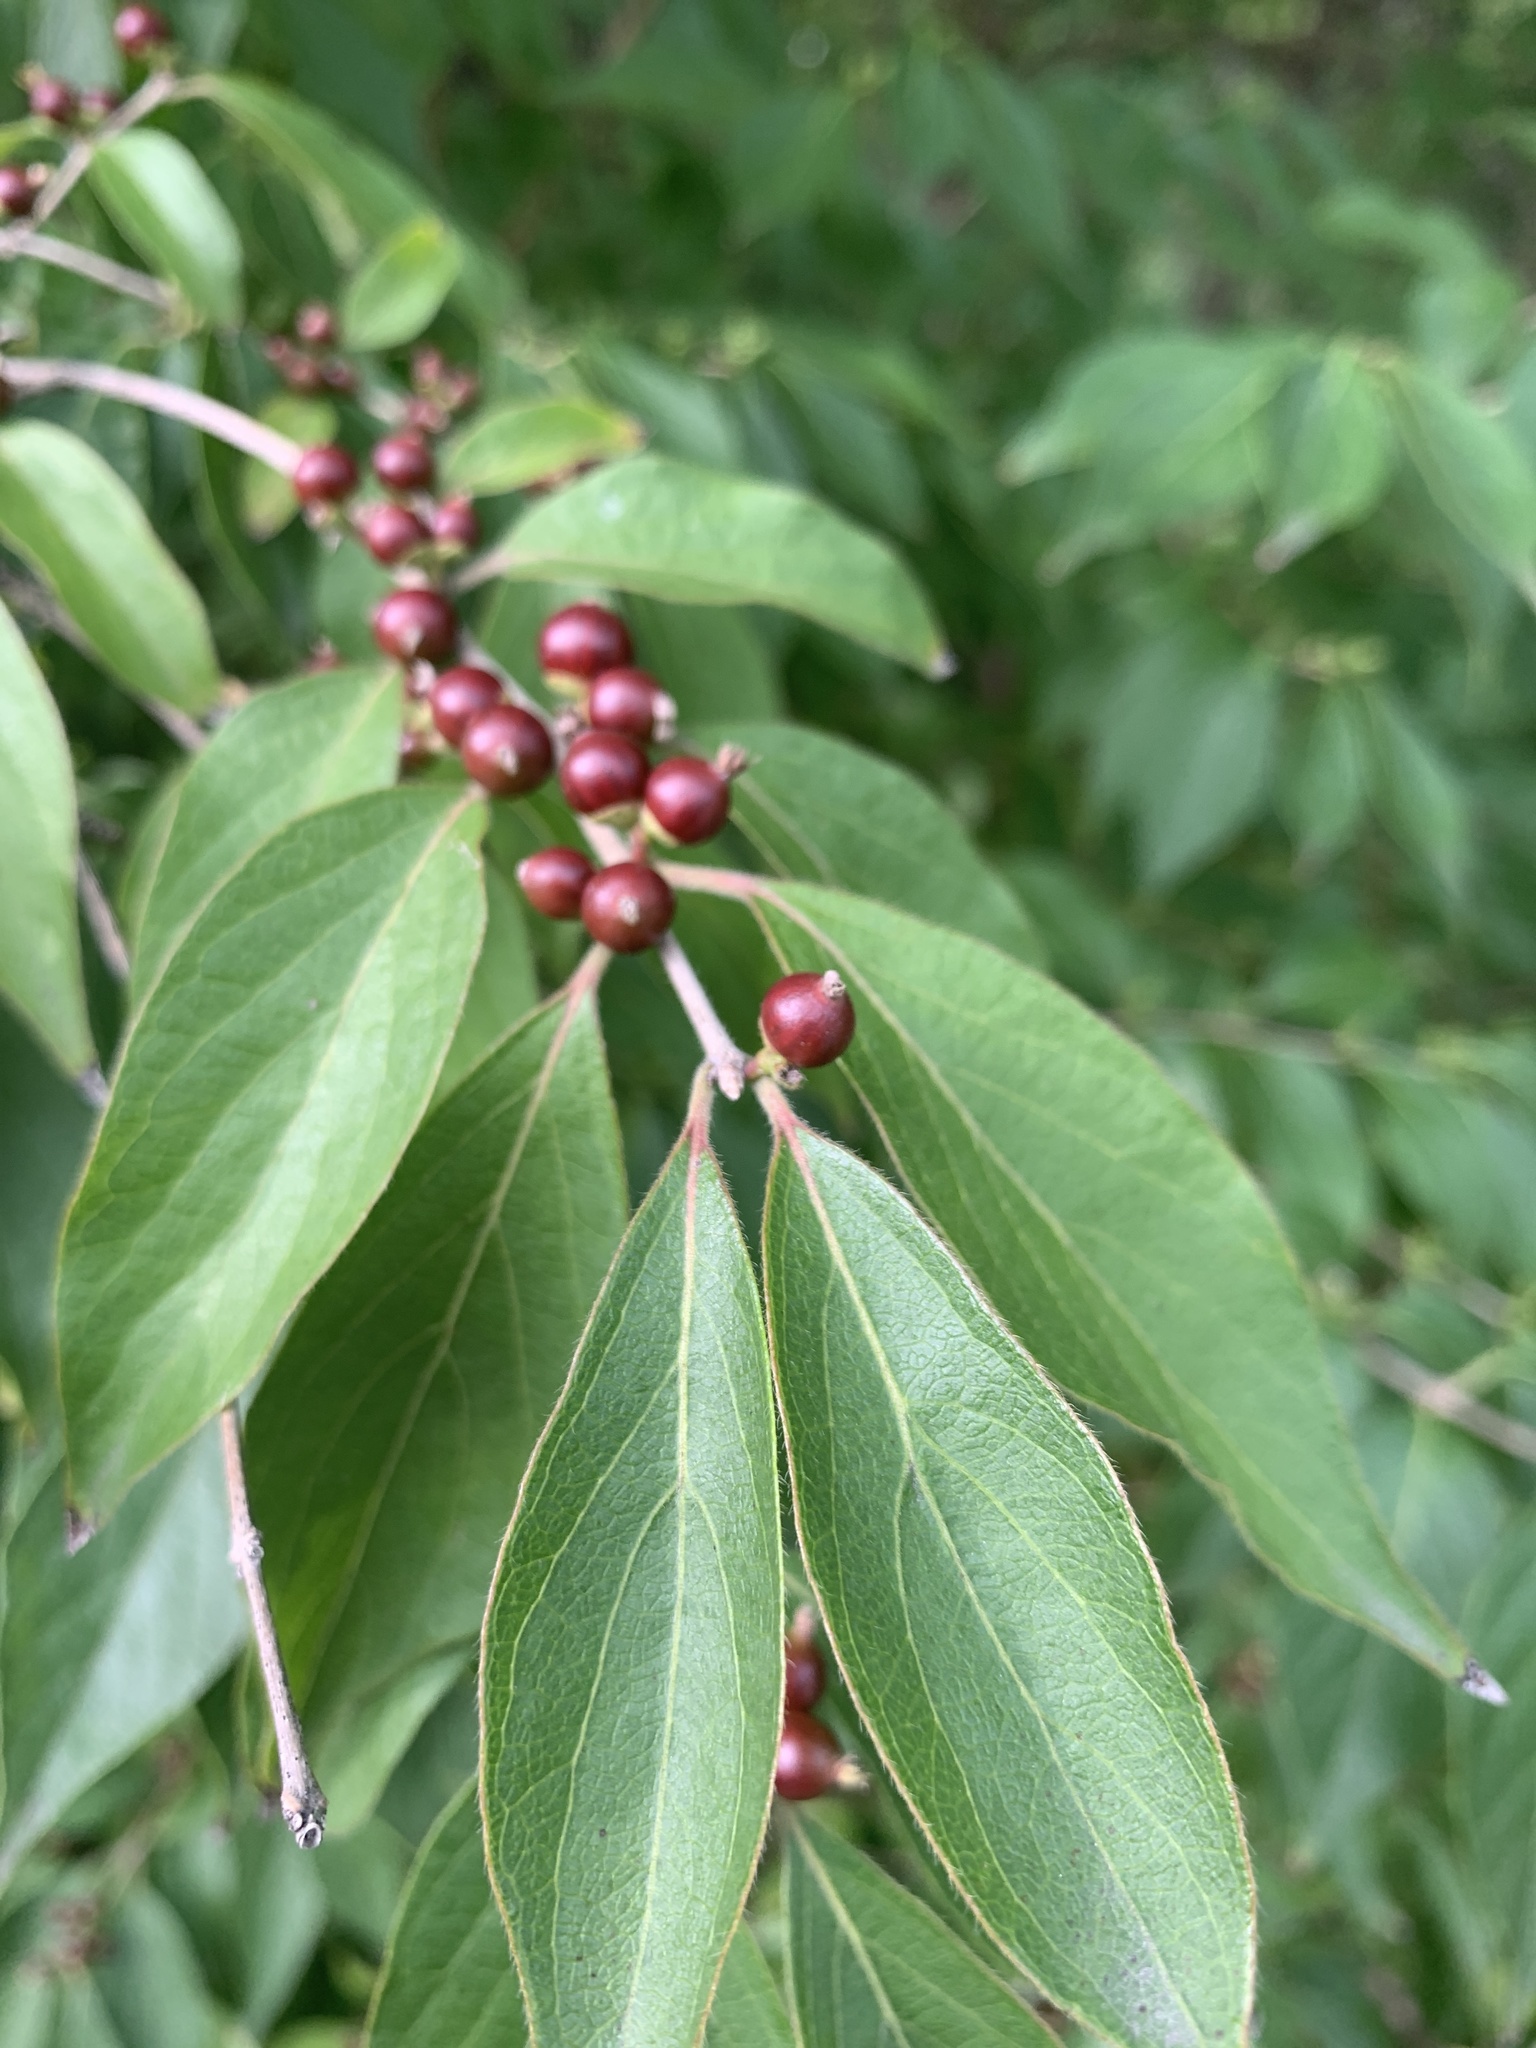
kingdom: Plantae
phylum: Tracheophyta
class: Magnoliopsida
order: Dipsacales
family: Caprifoliaceae
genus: Lonicera
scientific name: Lonicera maackii
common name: Amur honeysuckle
